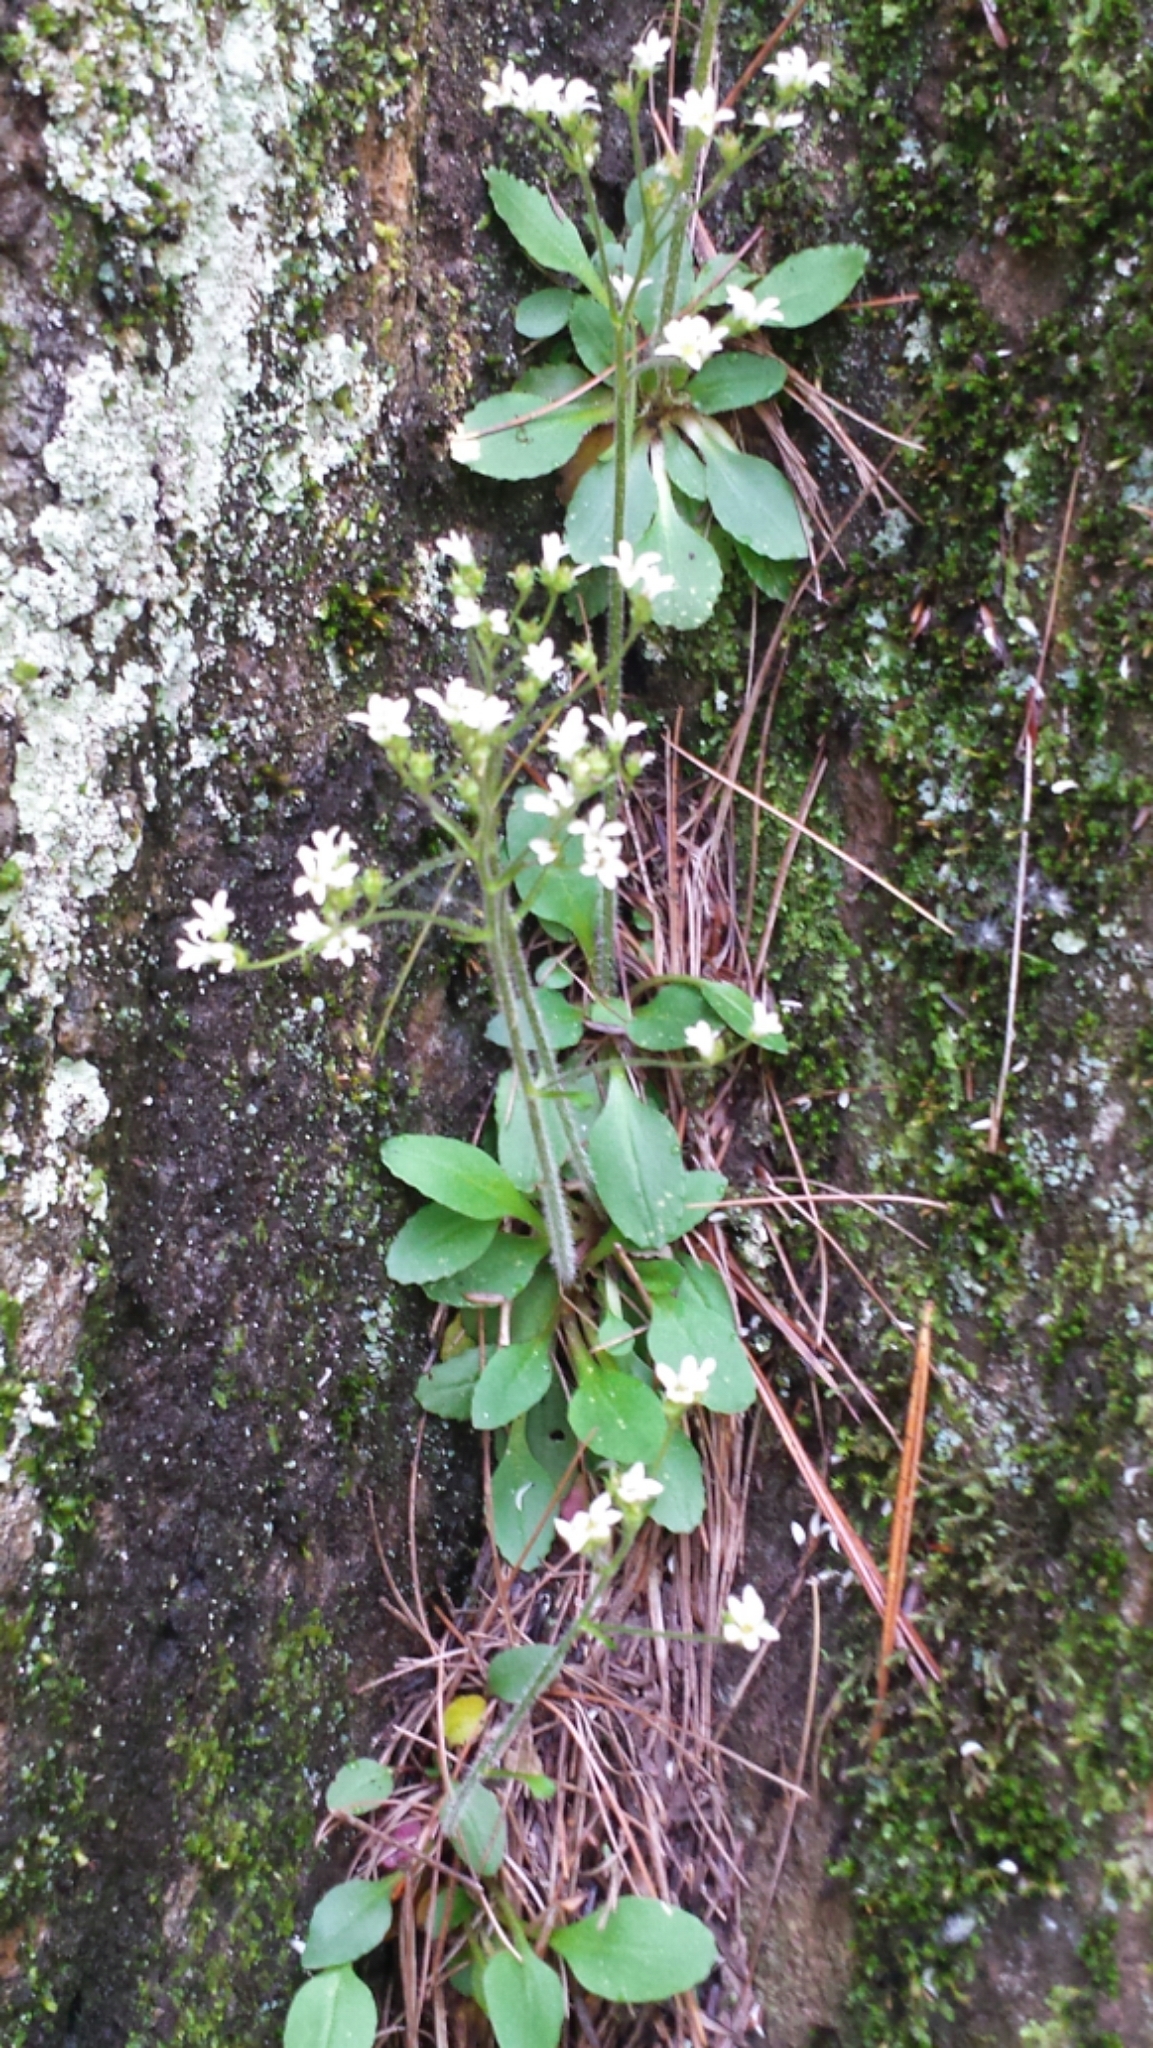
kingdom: Plantae
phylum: Tracheophyta
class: Magnoliopsida
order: Saxifragales
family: Saxifragaceae
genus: Micranthes
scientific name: Micranthes virginiensis
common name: Early saxifrage
